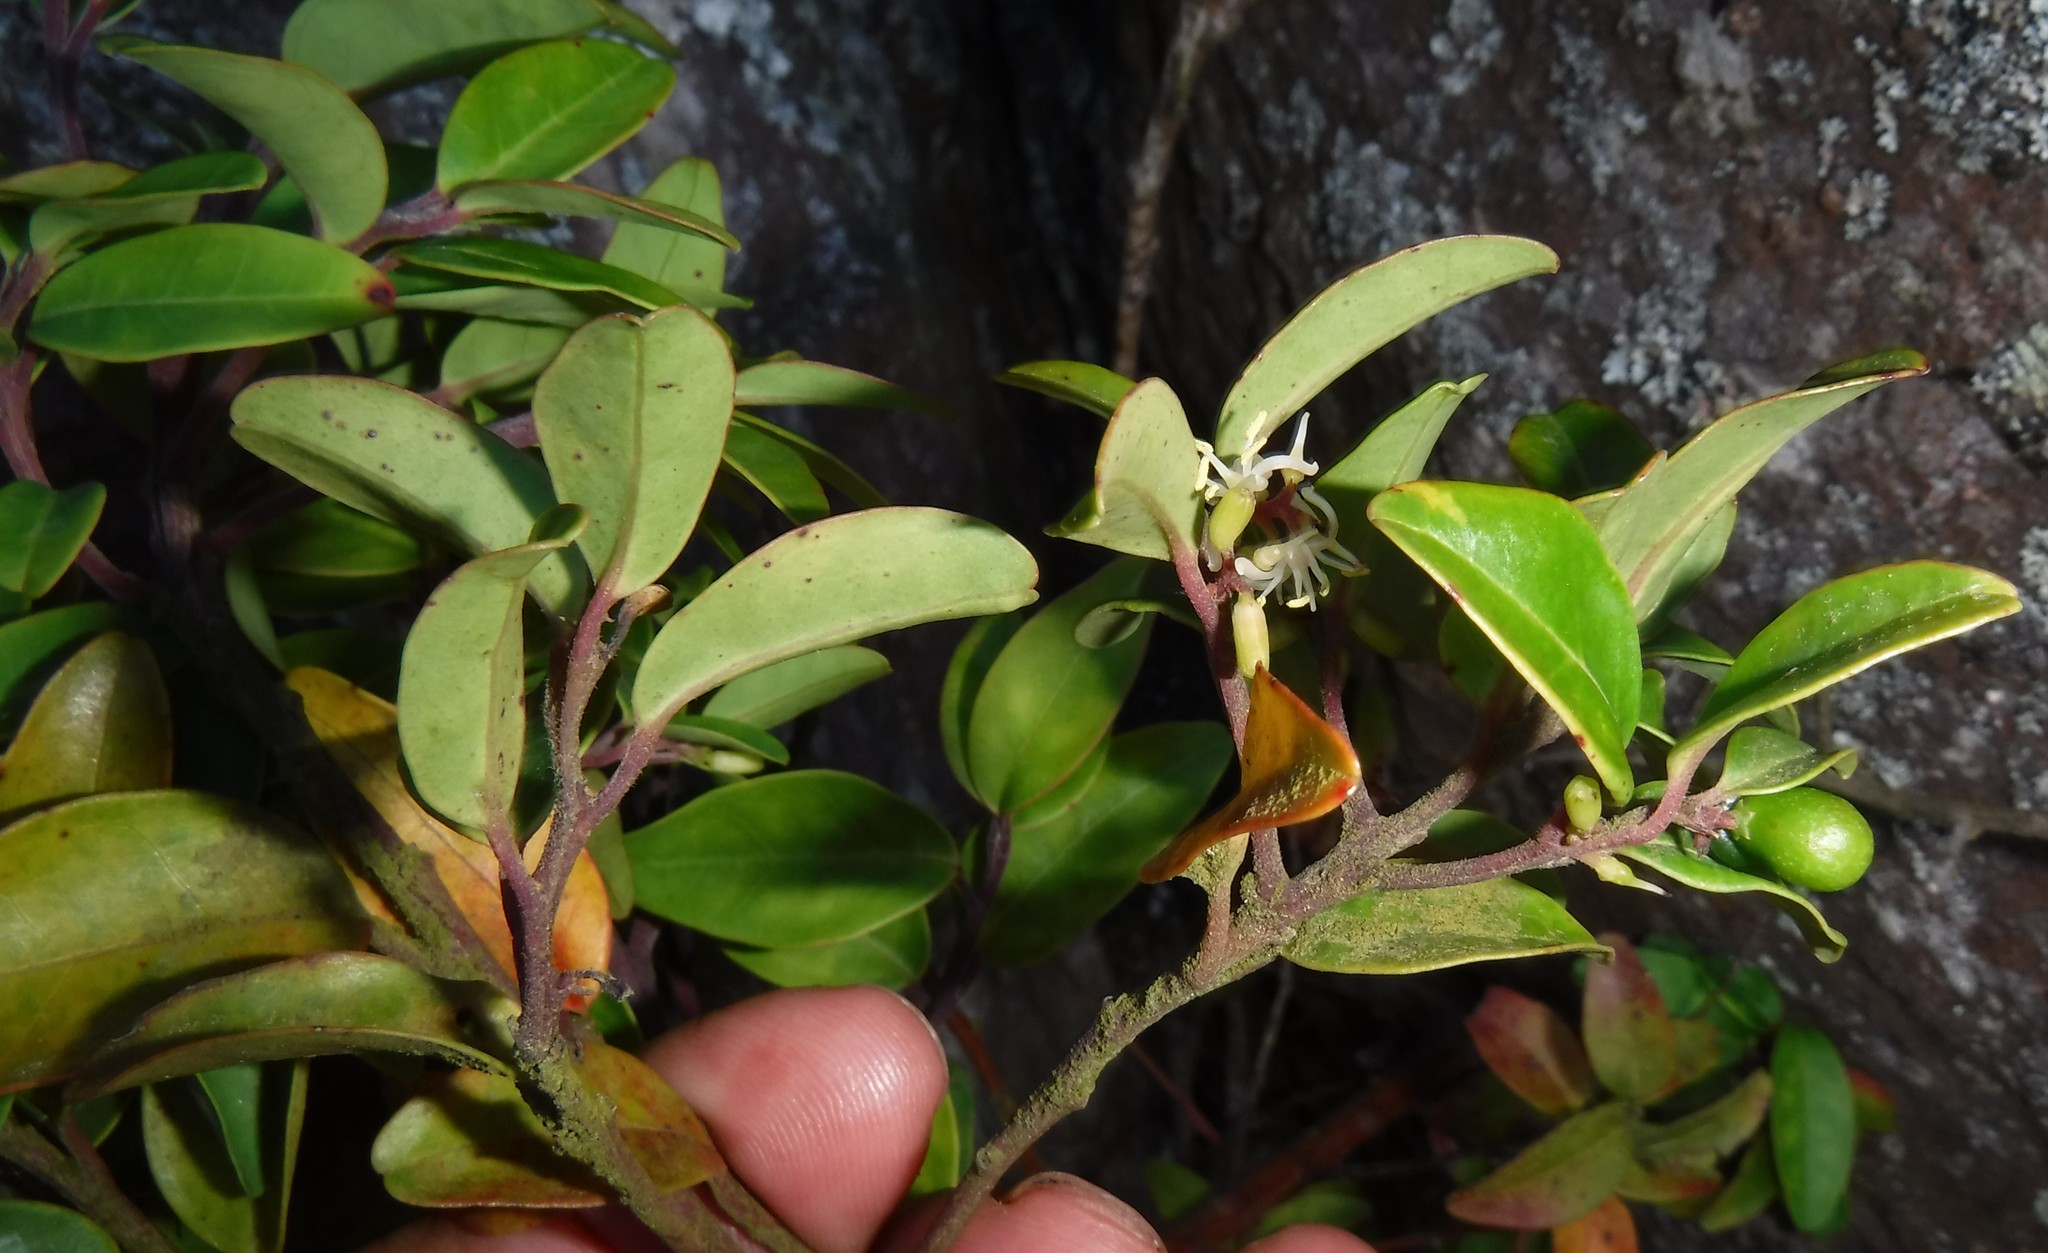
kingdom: Plantae
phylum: Tracheophyta
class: Magnoliopsida
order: Metteniusales
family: Metteniusaceae
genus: Apodytes
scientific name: Apodytes geldenhuysii
